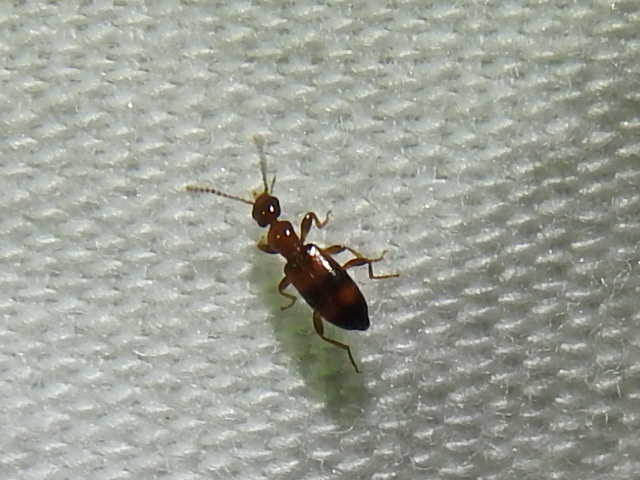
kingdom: Animalia
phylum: Arthropoda
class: Insecta
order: Coleoptera
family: Anthicidae
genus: Vacusus
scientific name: Vacusus vicinus
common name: Antlike flower beetle
